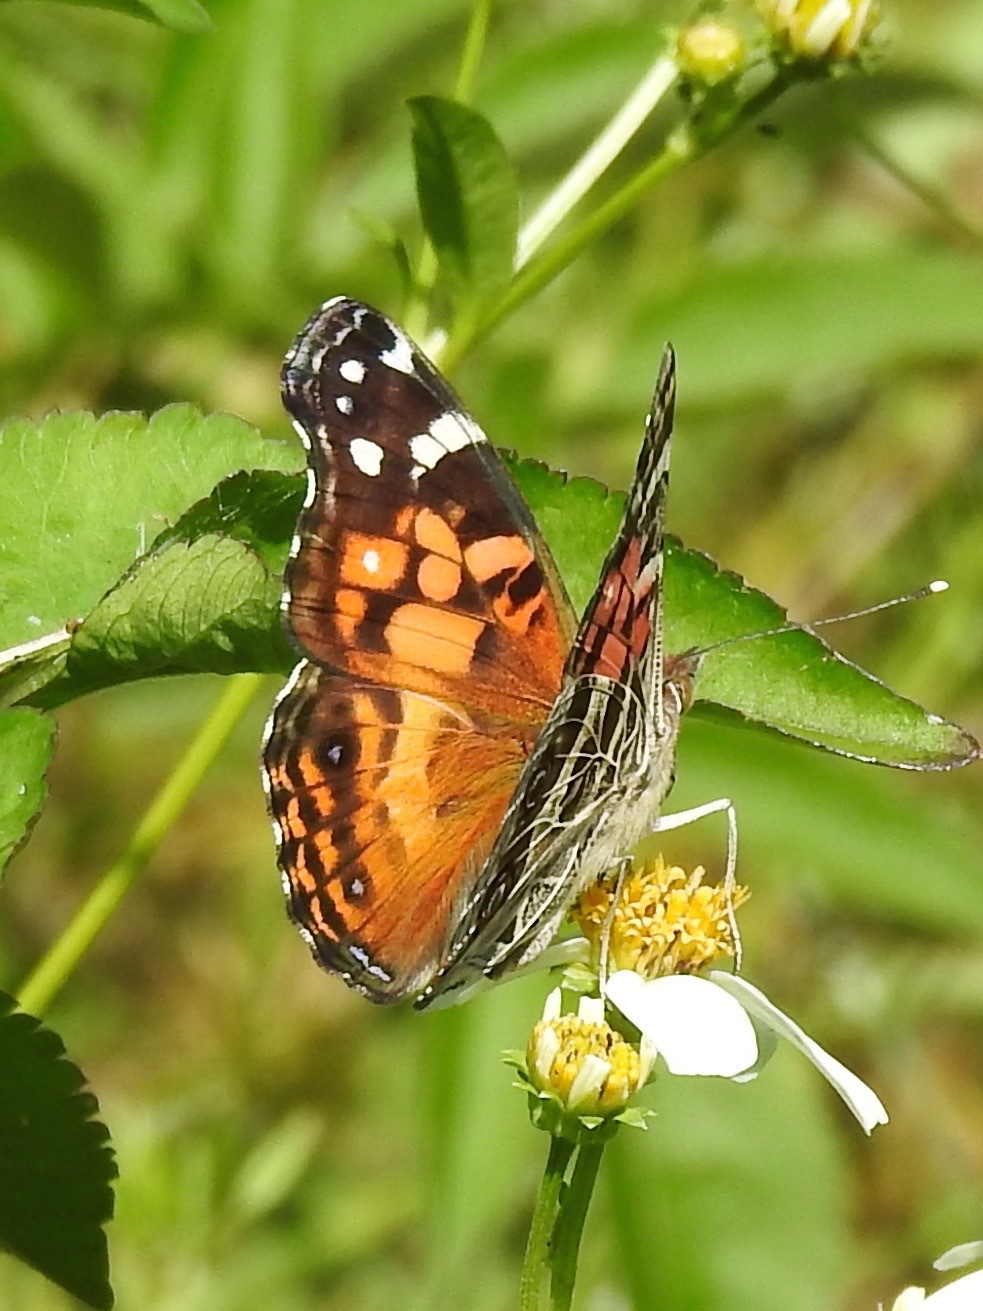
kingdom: Animalia
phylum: Arthropoda
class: Insecta
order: Lepidoptera
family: Nymphalidae
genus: Vanessa
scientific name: Vanessa virginiensis
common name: American lady
